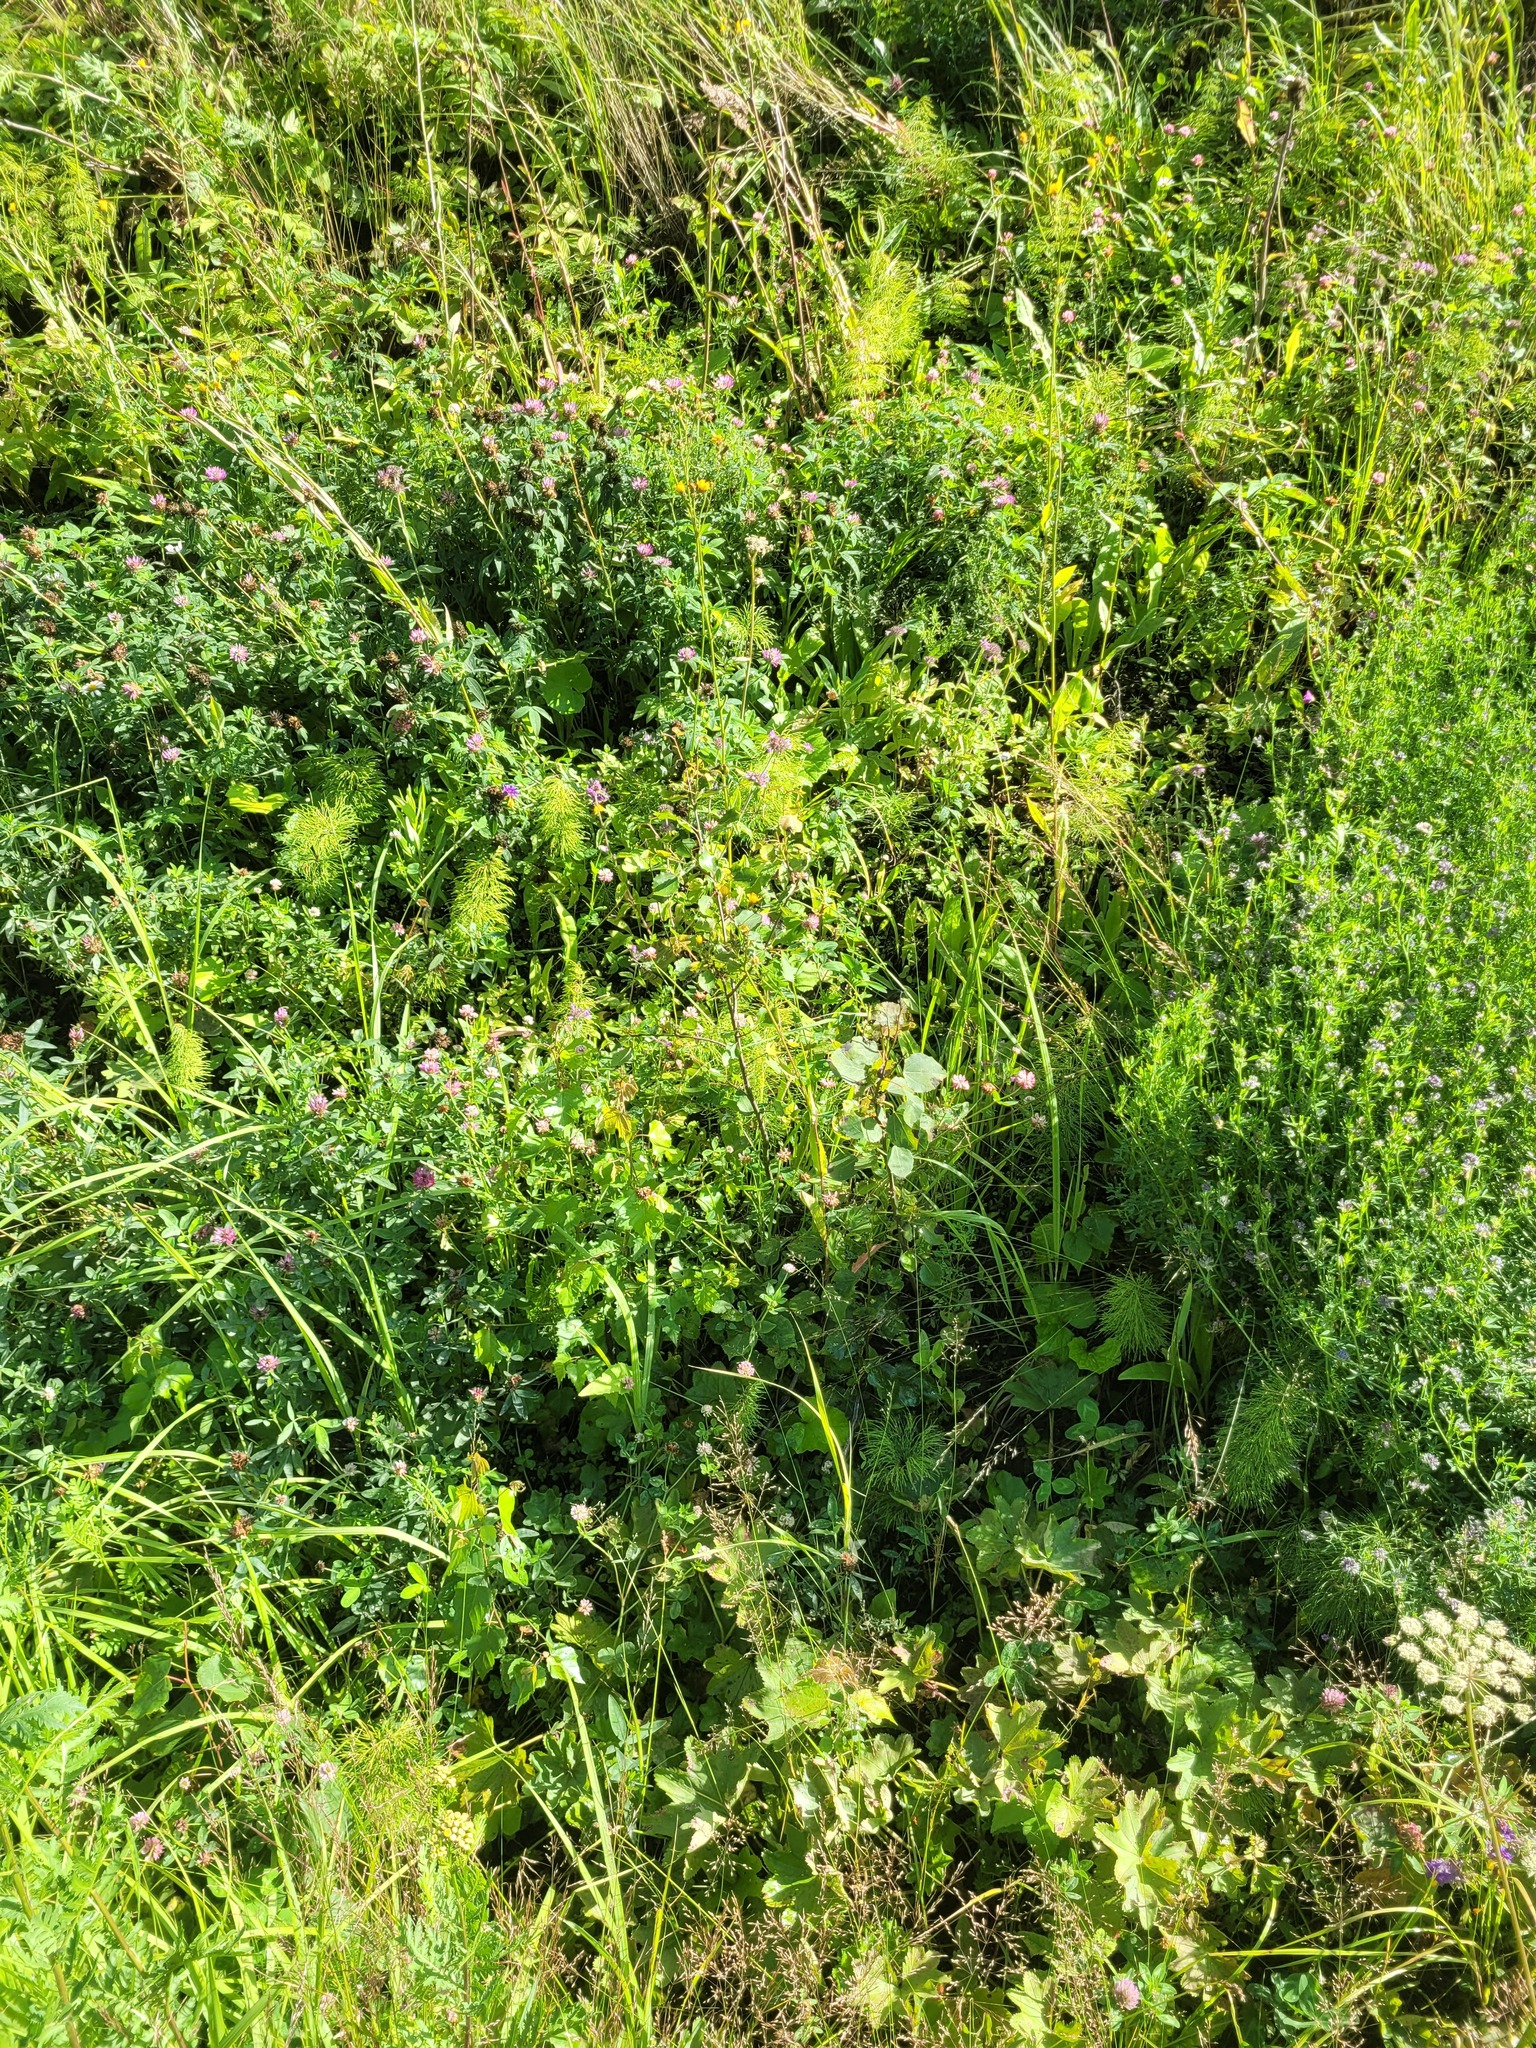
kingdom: Plantae
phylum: Tracheophyta
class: Magnoliopsida
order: Malpighiales
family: Salicaceae
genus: Populus
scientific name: Populus tremula
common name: European aspen
